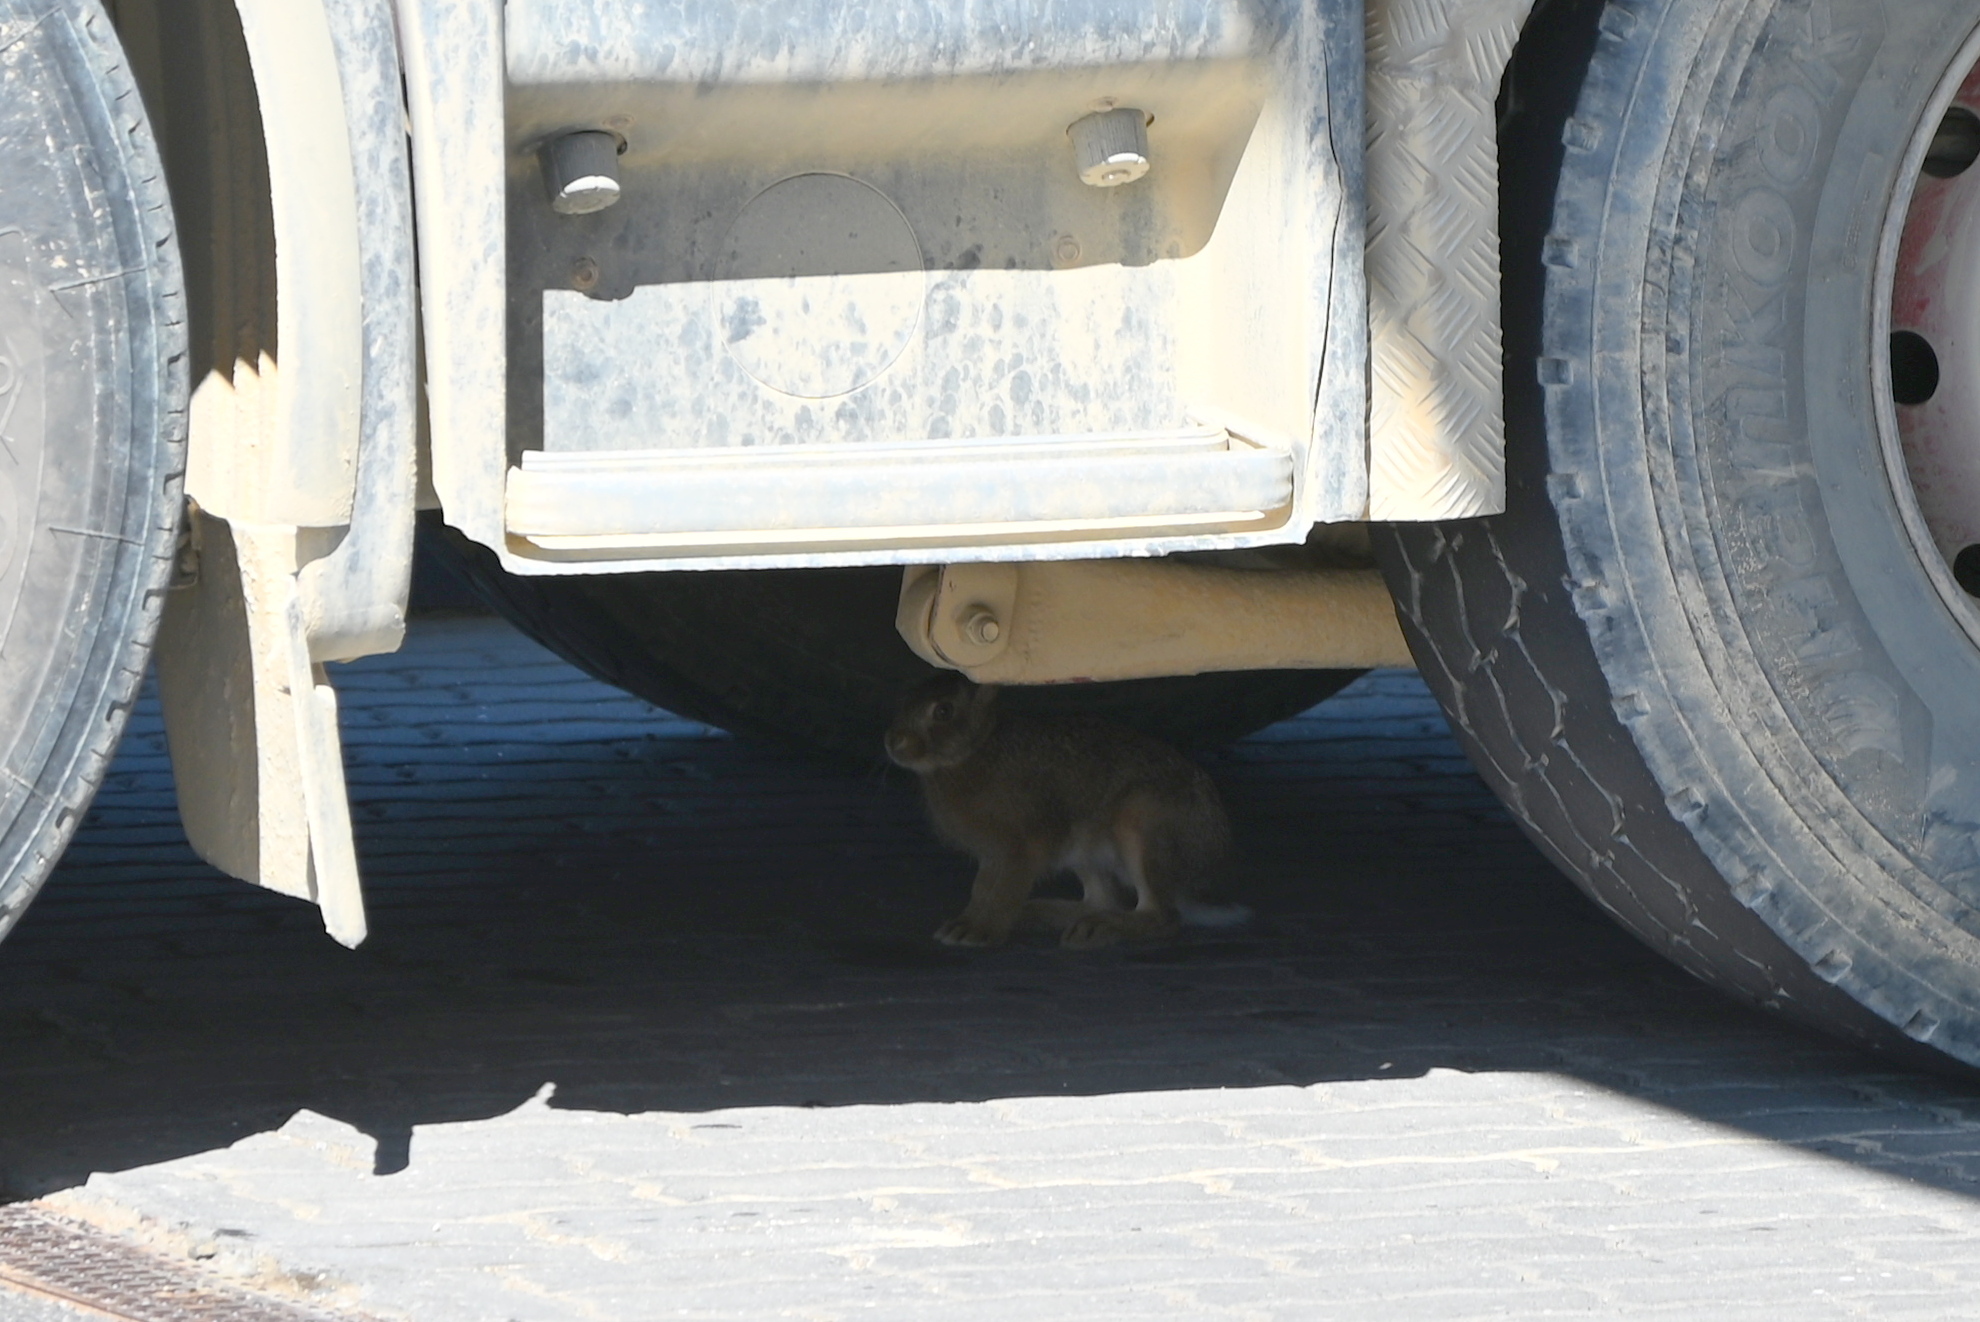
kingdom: Animalia
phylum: Chordata
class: Mammalia
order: Lagomorpha
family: Leporidae
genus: Lepus
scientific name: Lepus europaeus
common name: European hare
